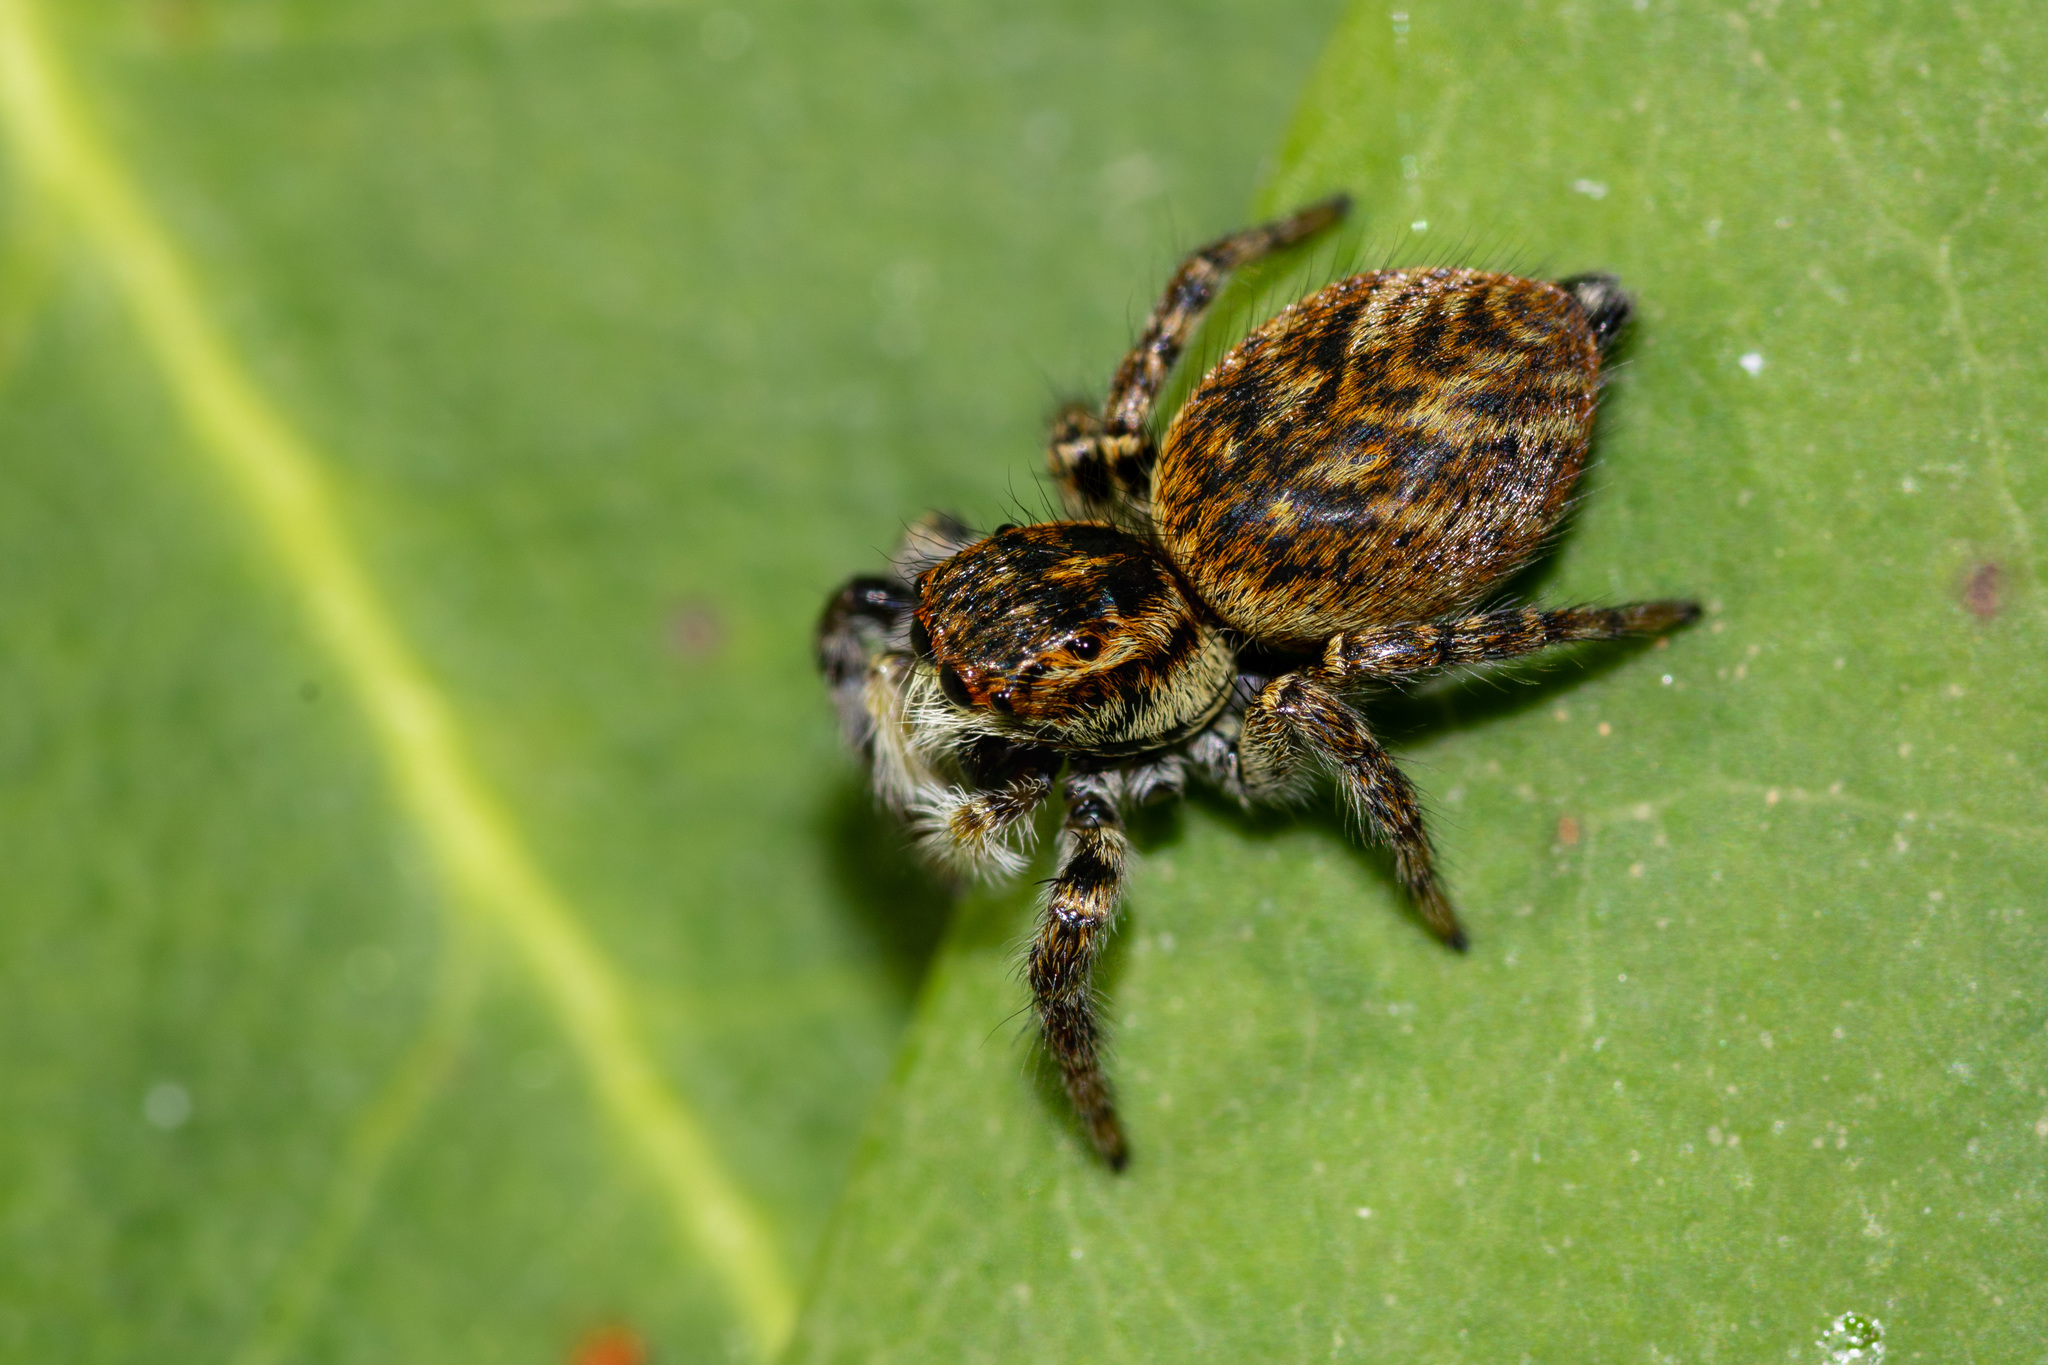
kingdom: Animalia
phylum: Arthropoda
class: Arachnida
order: Araneae
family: Salticidae
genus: Carrhotus
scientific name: Carrhotus xanthogramma
